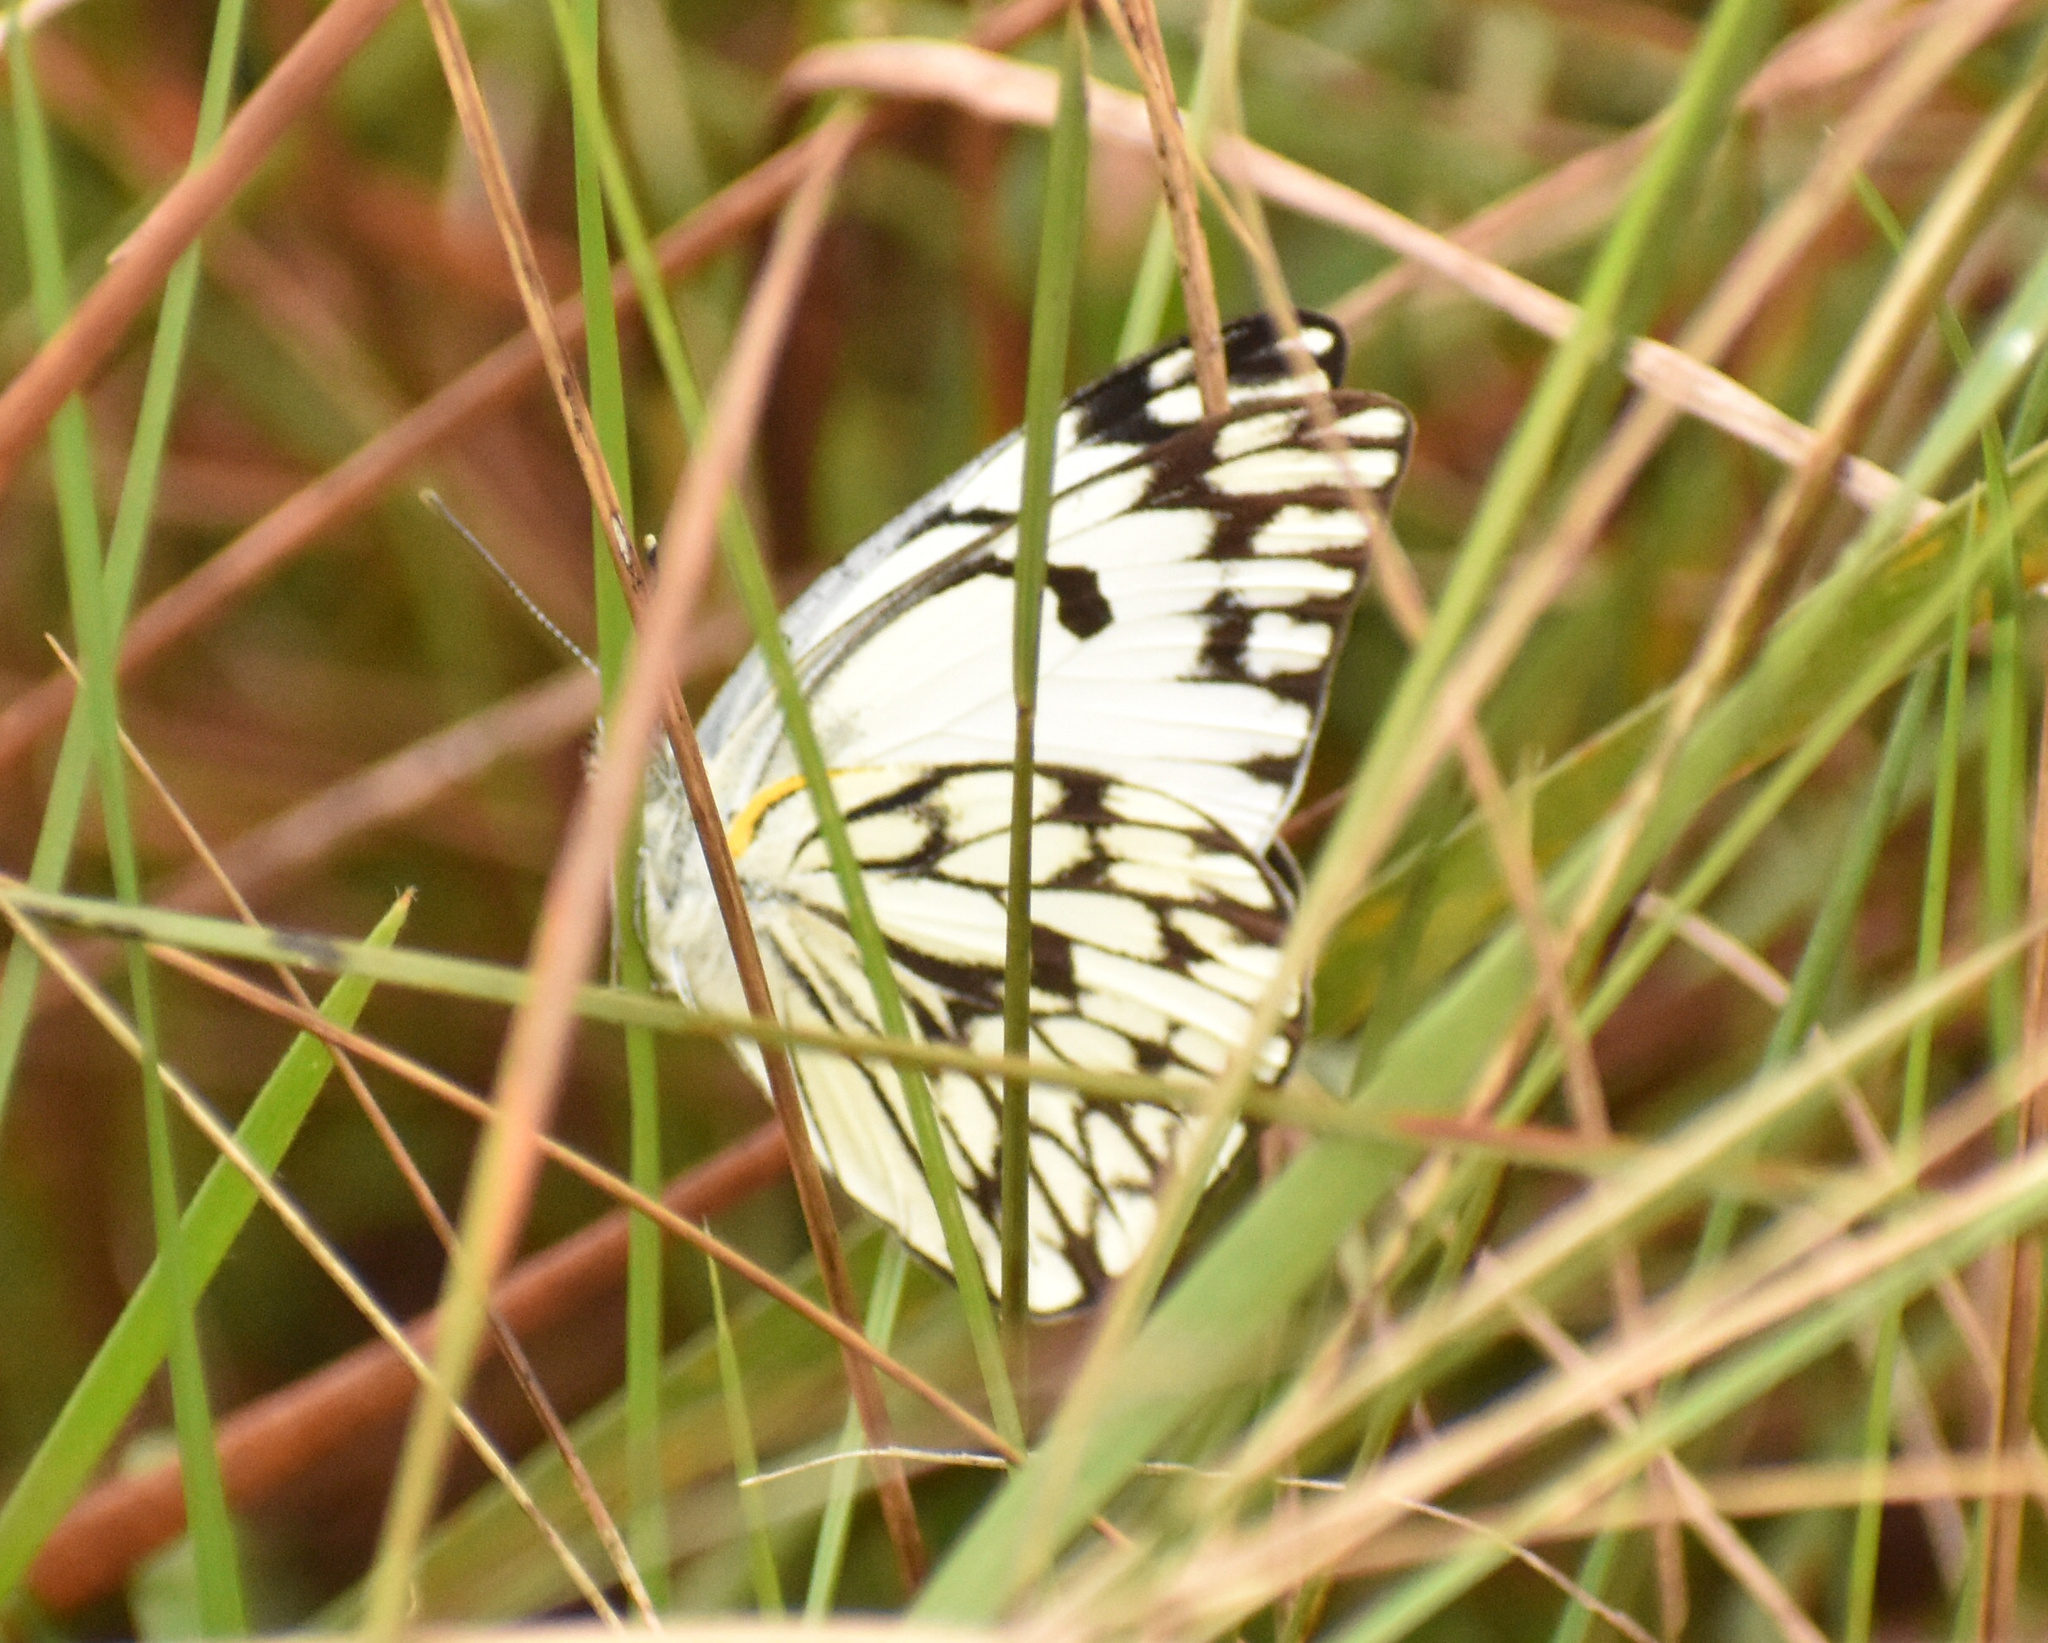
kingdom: Animalia
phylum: Arthropoda
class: Insecta
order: Lepidoptera
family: Pieridae
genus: Belenois
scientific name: Belenois gidica
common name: Pointed caper white
